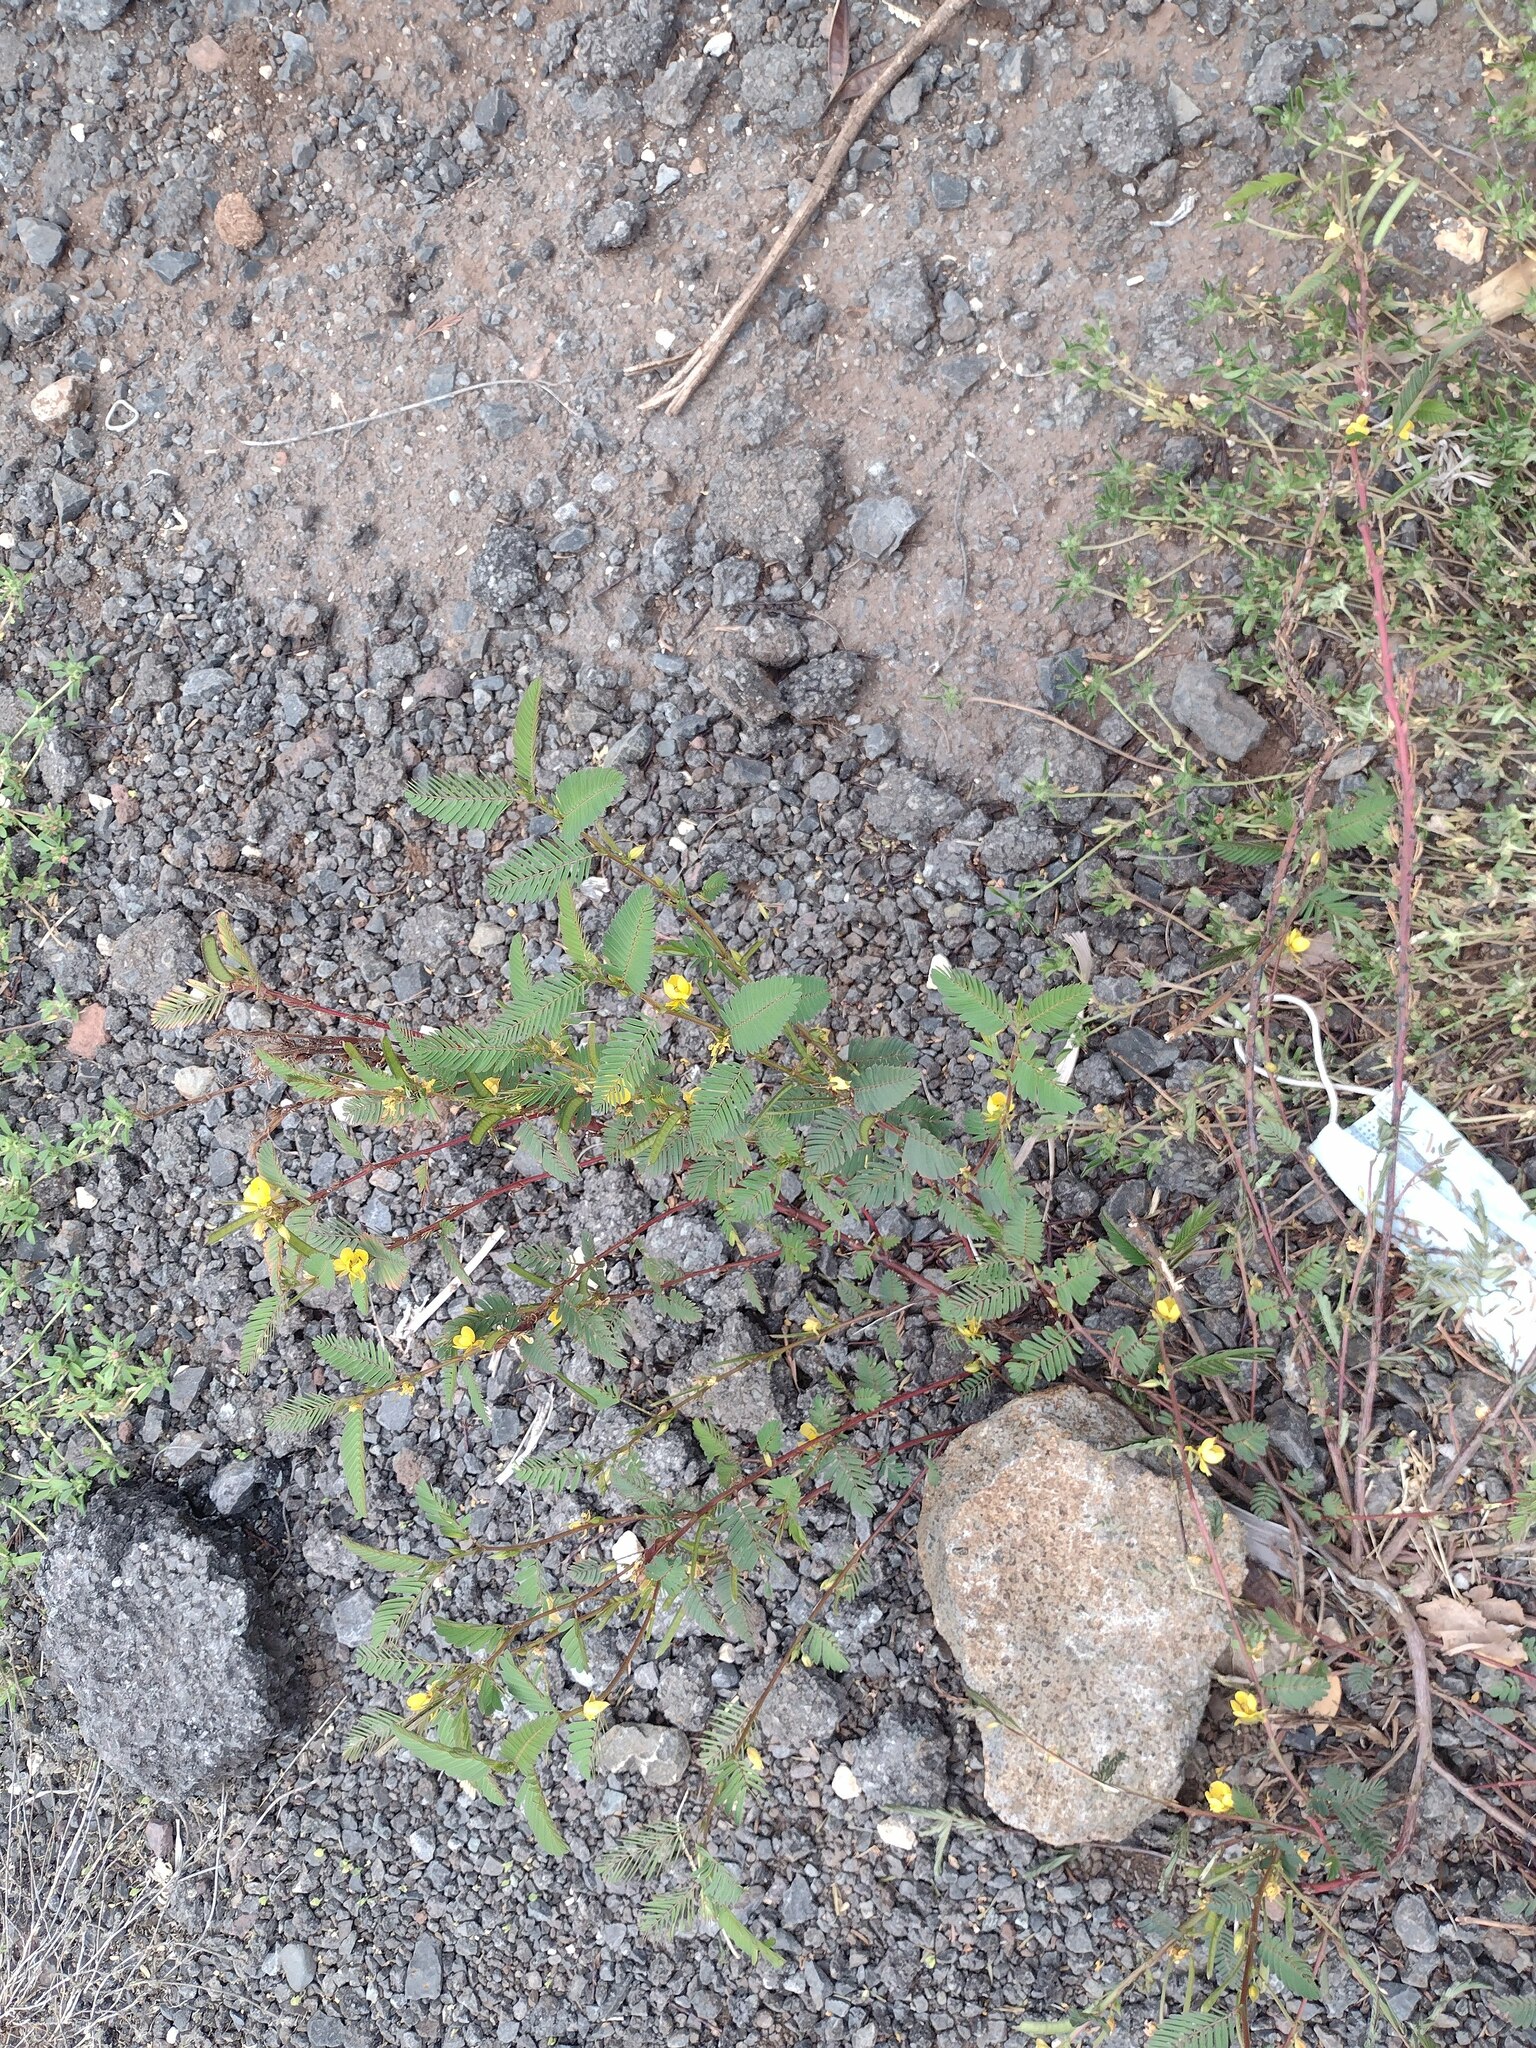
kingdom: Plantae
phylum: Tracheophyta
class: Magnoliopsida
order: Fabales
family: Fabaceae
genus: Chamaecrista
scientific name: Chamaecrista nictitans
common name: Sensitive cassia
